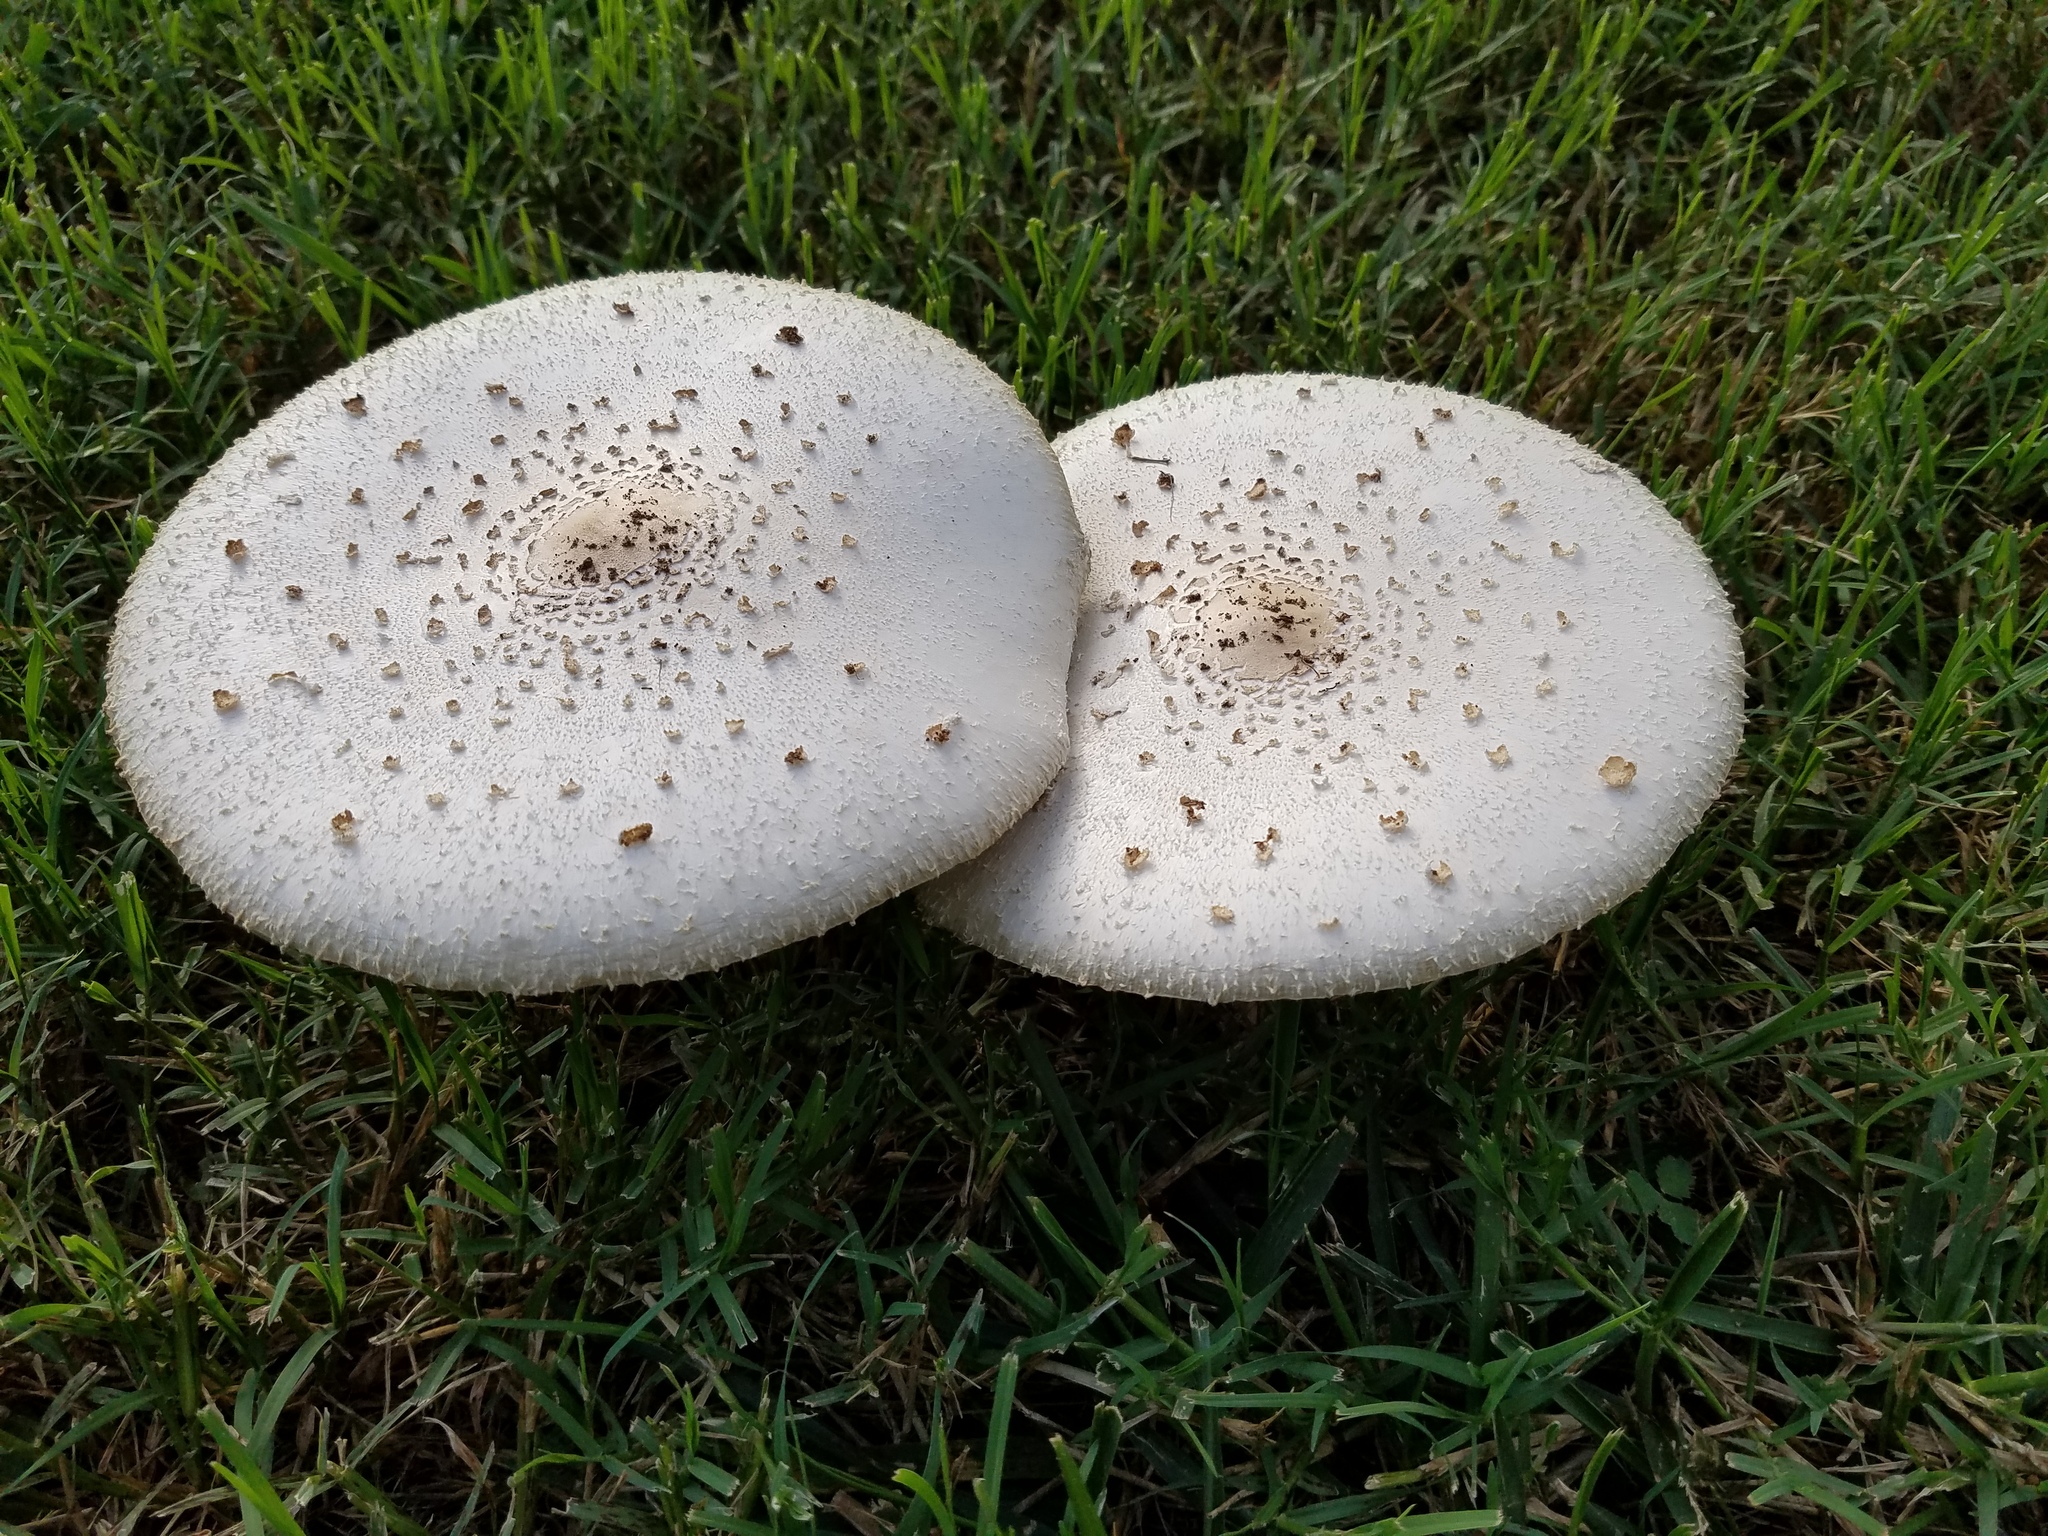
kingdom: Fungi
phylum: Basidiomycota
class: Agaricomycetes
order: Agaricales
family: Agaricaceae
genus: Chlorophyllum
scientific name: Chlorophyllum molybdites
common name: False parasol
